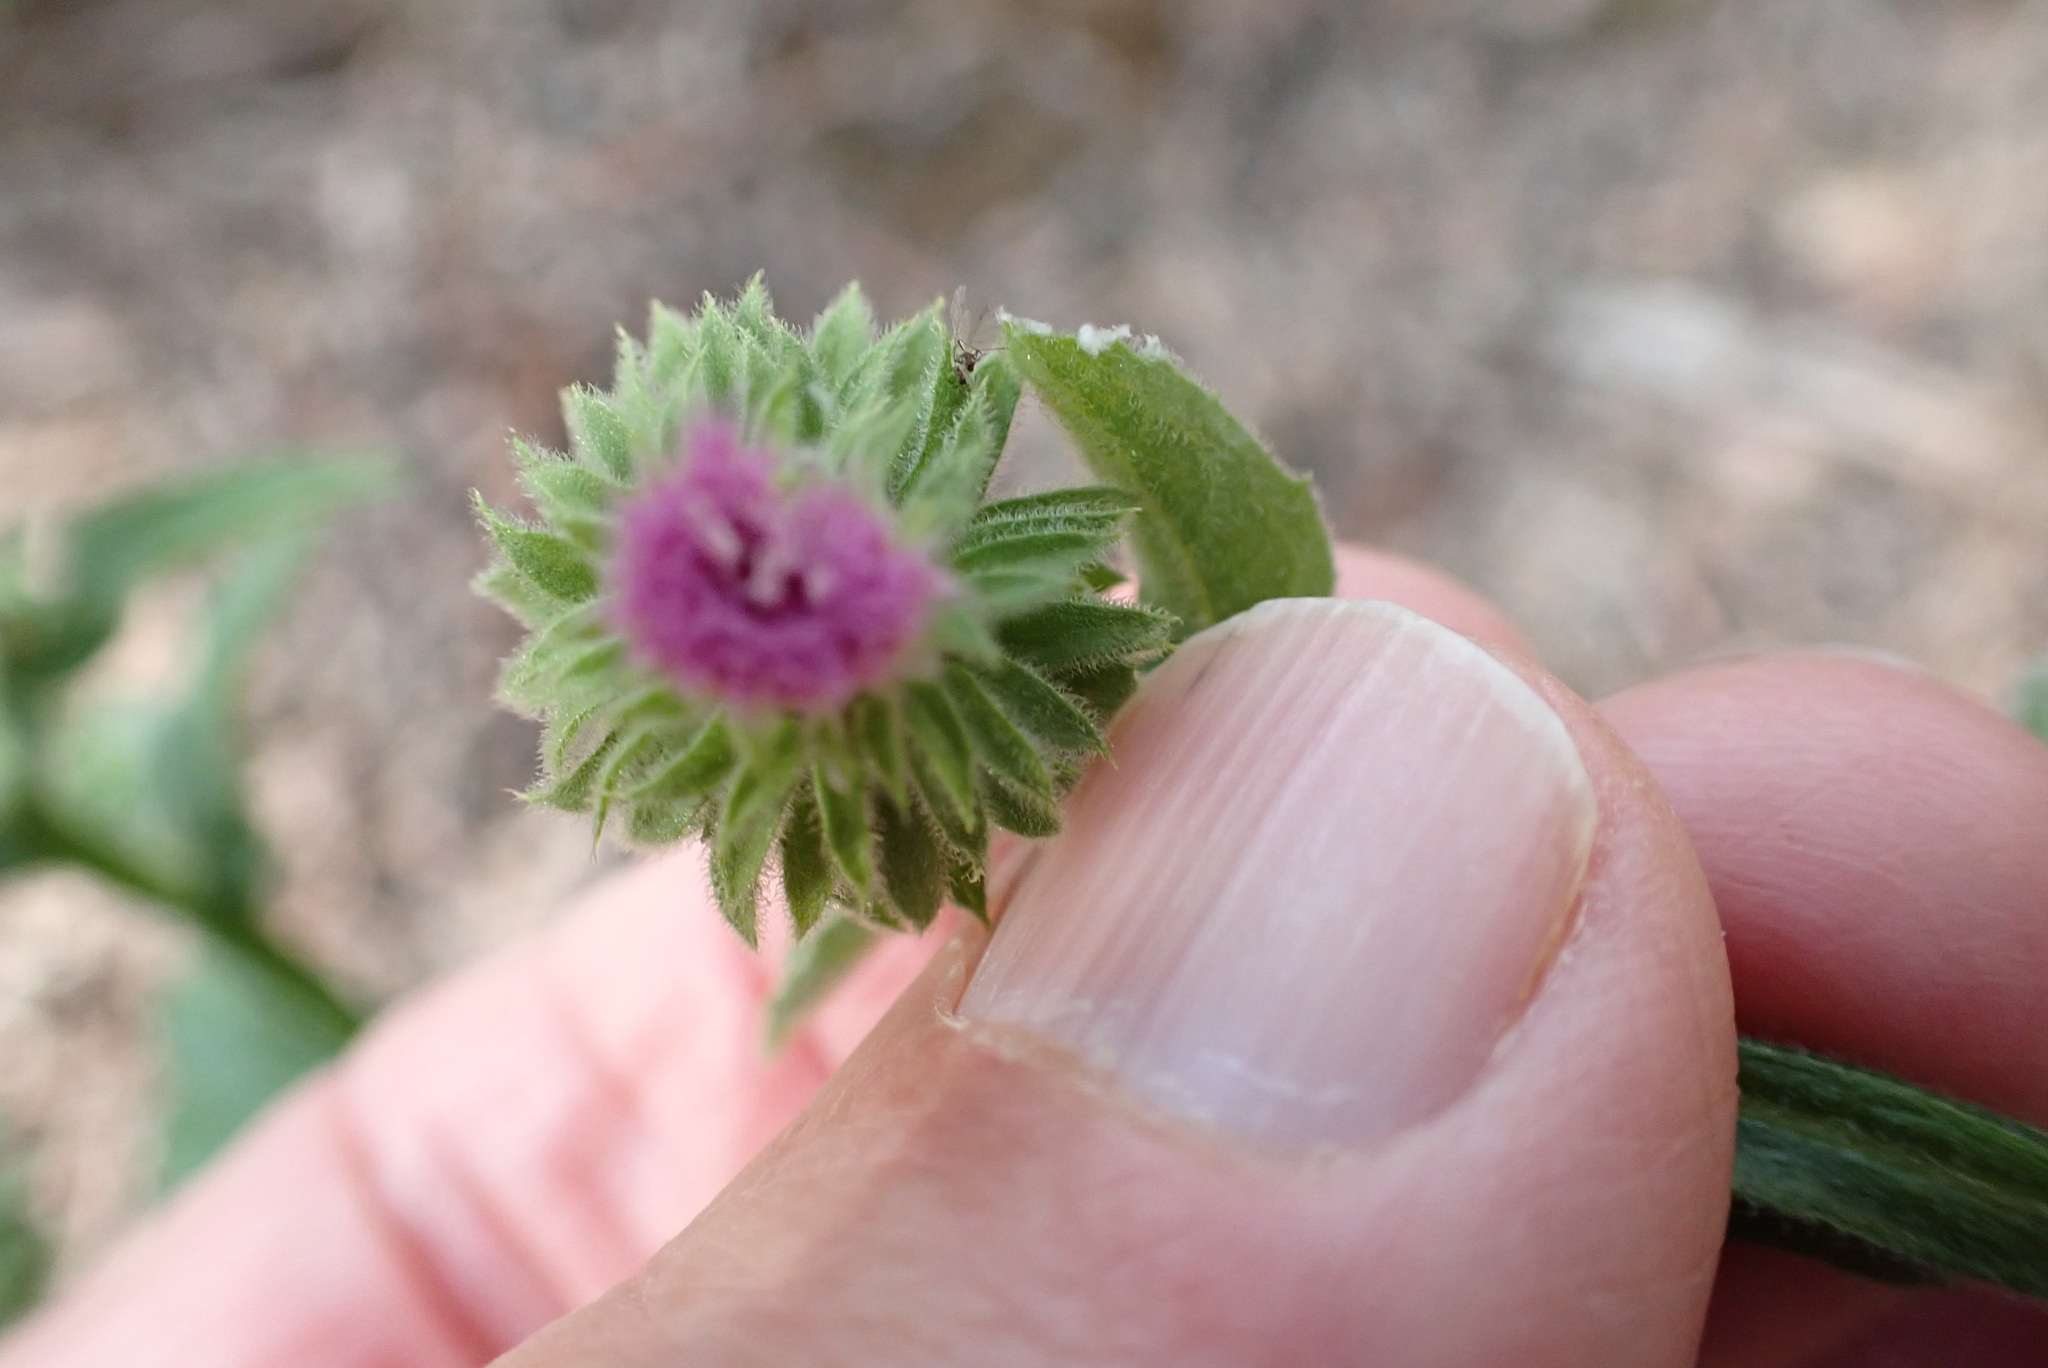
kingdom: Plantae
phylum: Tracheophyta
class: Magnoliopsida
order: Asterales
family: Asteraceae
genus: Laggera
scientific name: Laggera crispata
